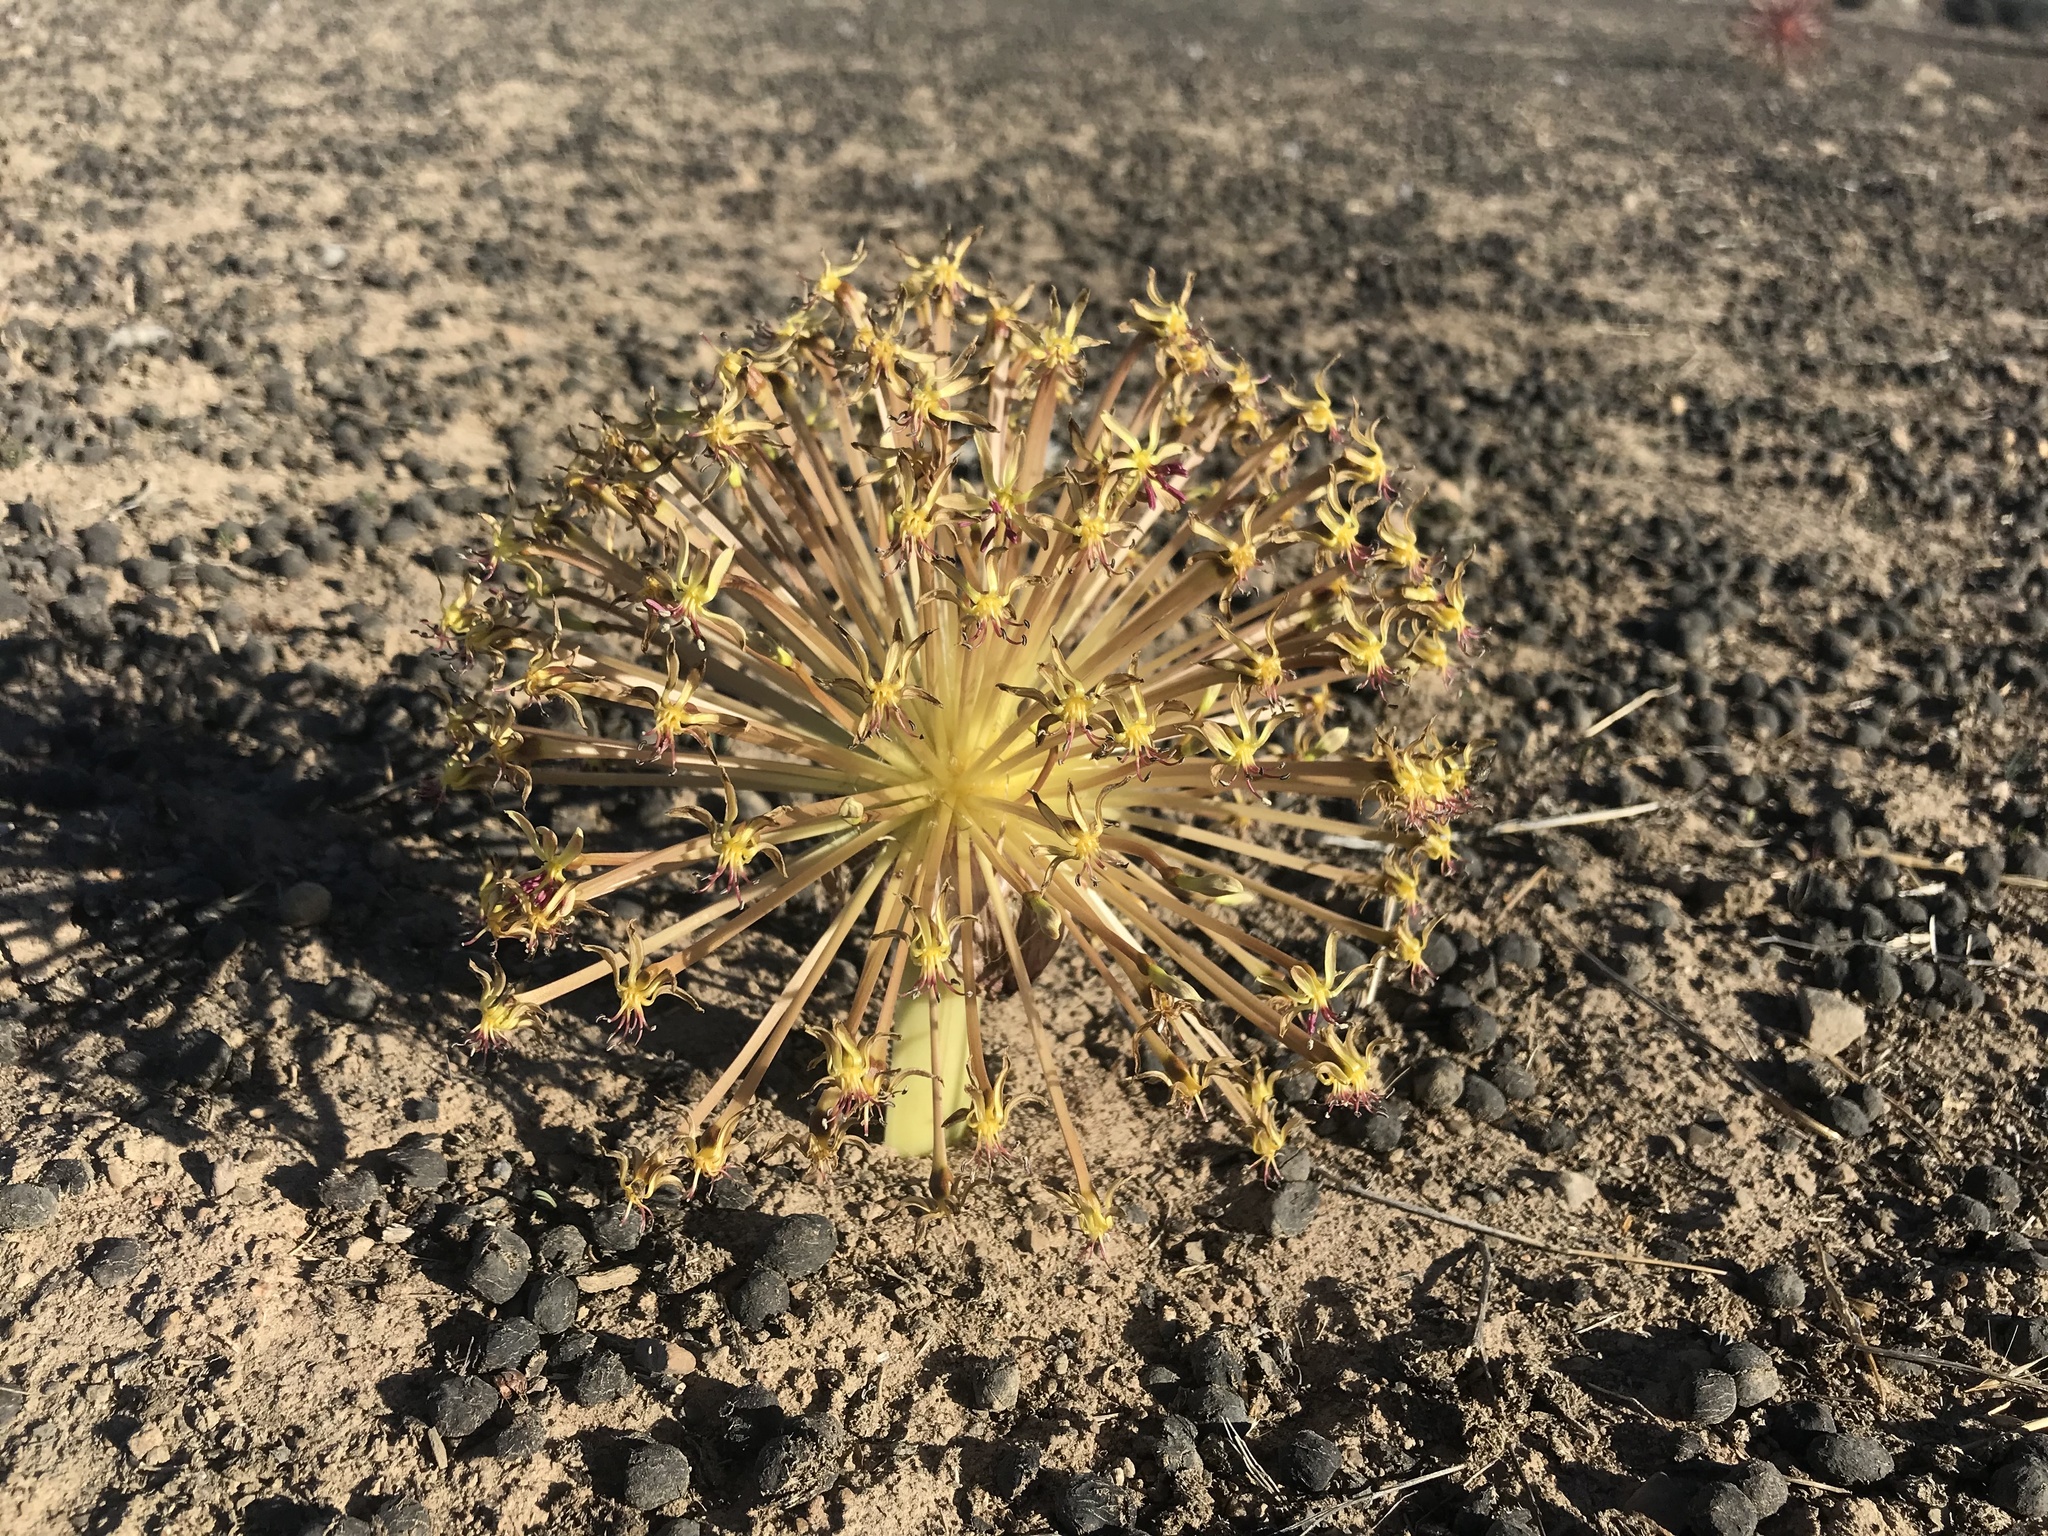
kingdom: Plantae
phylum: Tracheophyta
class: Liliopsida
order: Asparagales
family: Amaryllidaceae
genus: Crossyne
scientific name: Crossyne flava
